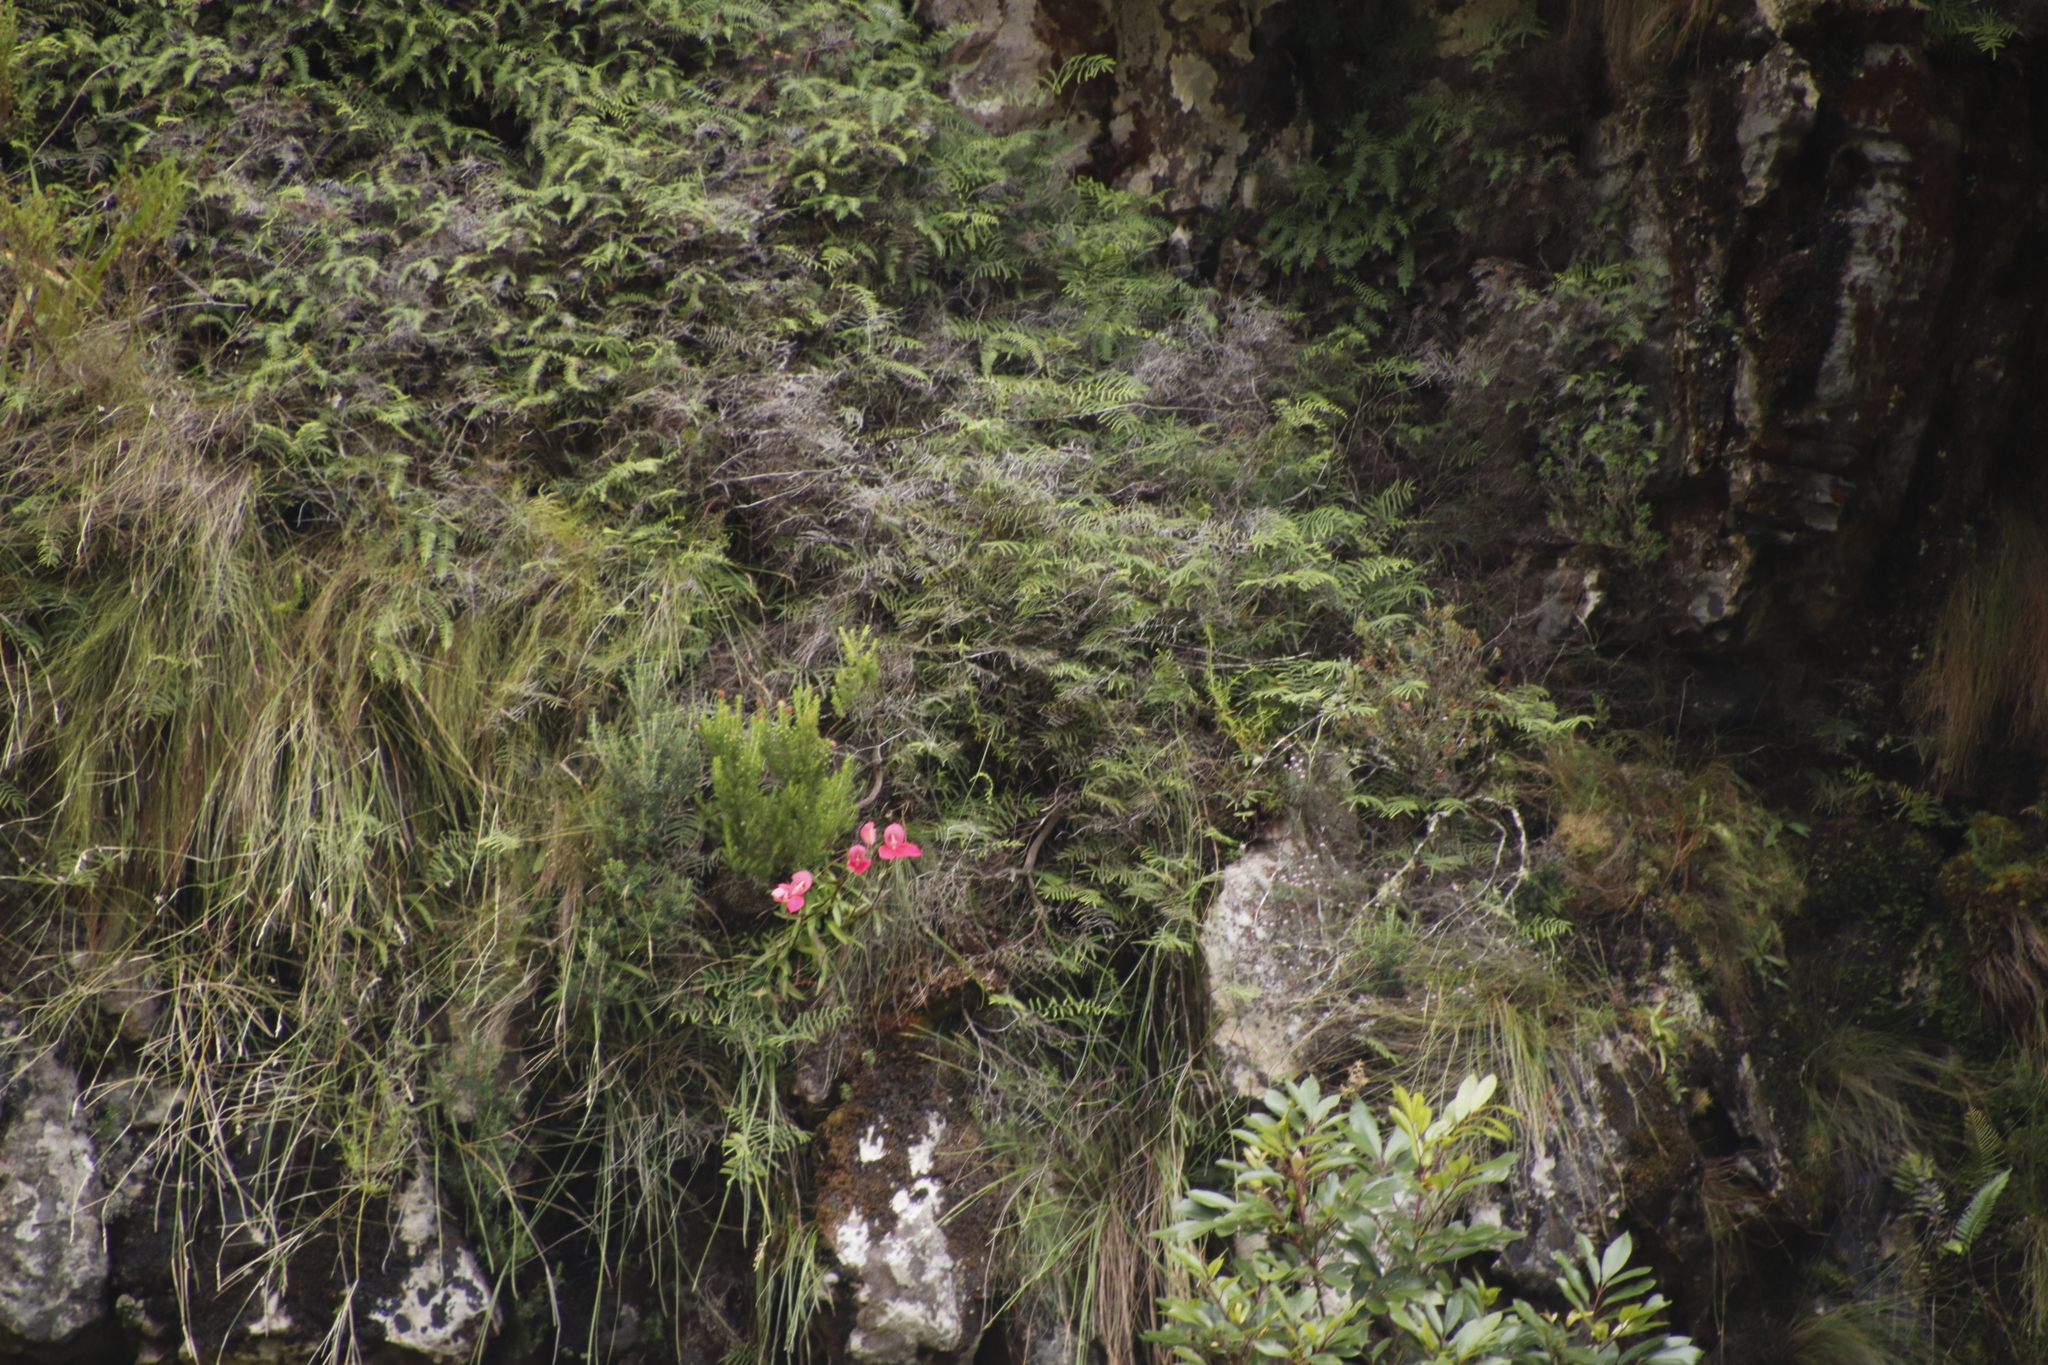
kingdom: Plantae
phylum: Tracheophyta
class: Liliopsida
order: Asparagales
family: Orchidaceae
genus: Disa
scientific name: Disa uniflora
